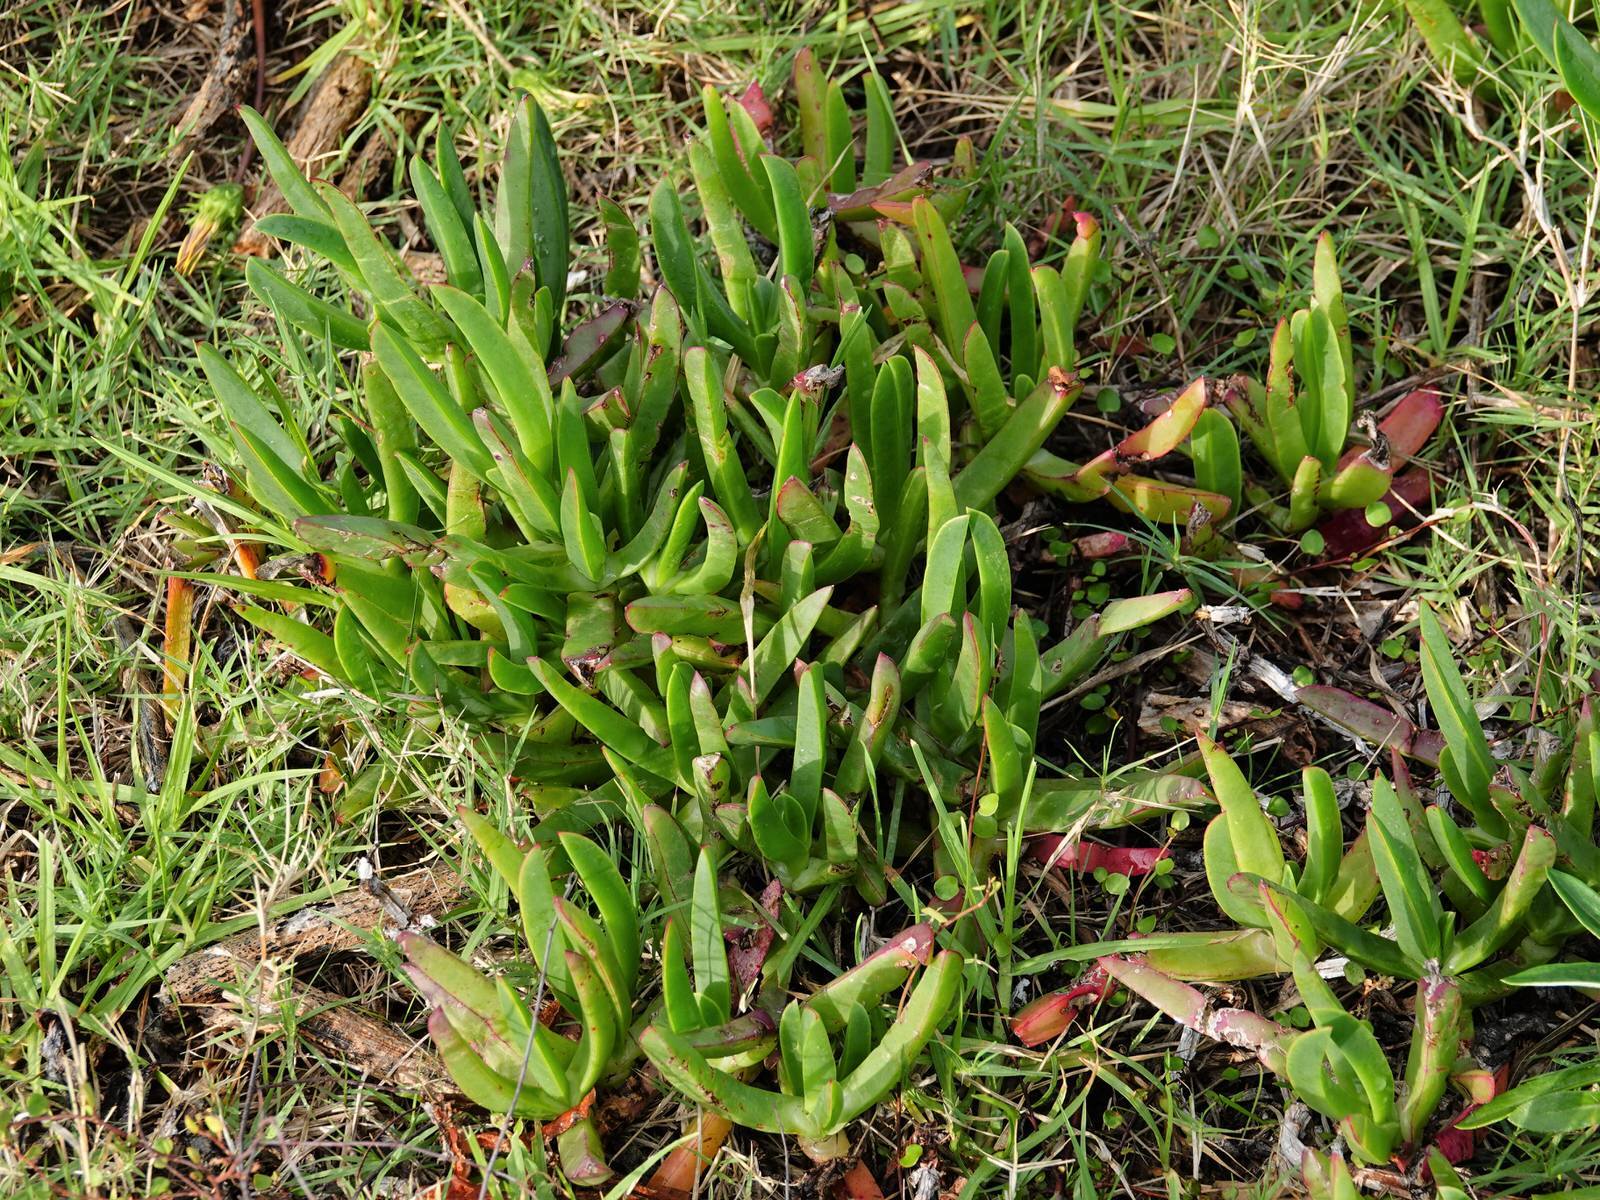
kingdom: Plantae
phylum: Tracheophyta
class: Magnoliopsida
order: Caryophyllales
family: Aizoaceae
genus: Carpobrotus
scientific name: Carpobrotus edulis
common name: Hottentot-fig
